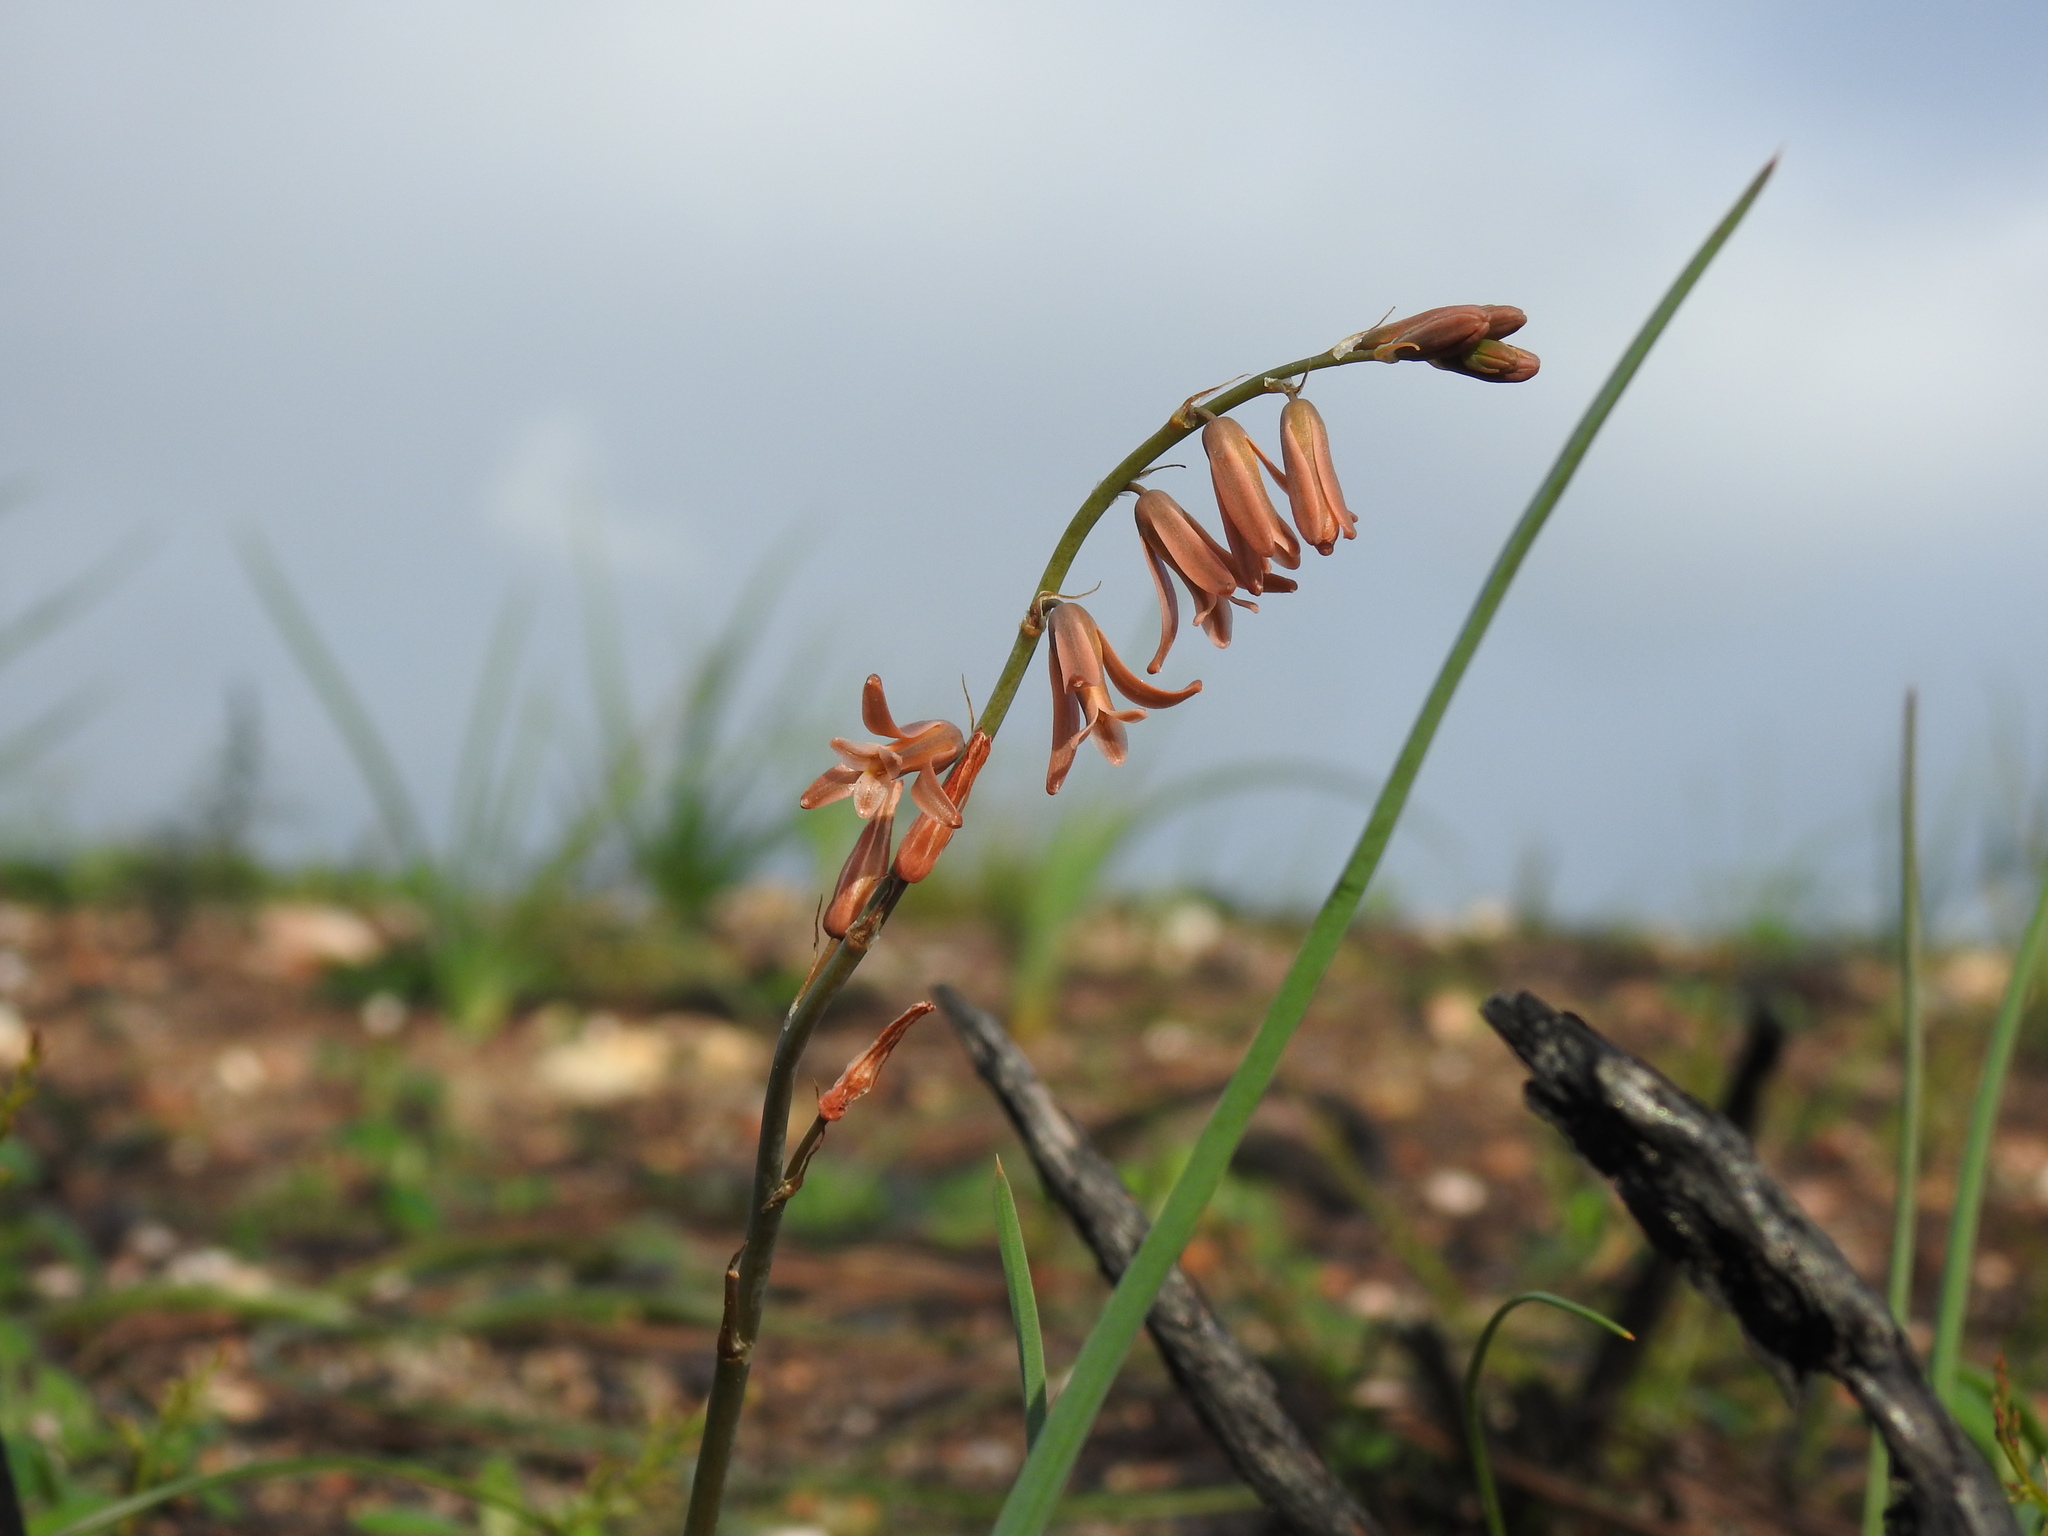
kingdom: Plantae
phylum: Tracheophyta
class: Liliopsida
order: Asparagales
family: Asparagaceae
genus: Dipcadi
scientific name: Dipcadi serotinum
